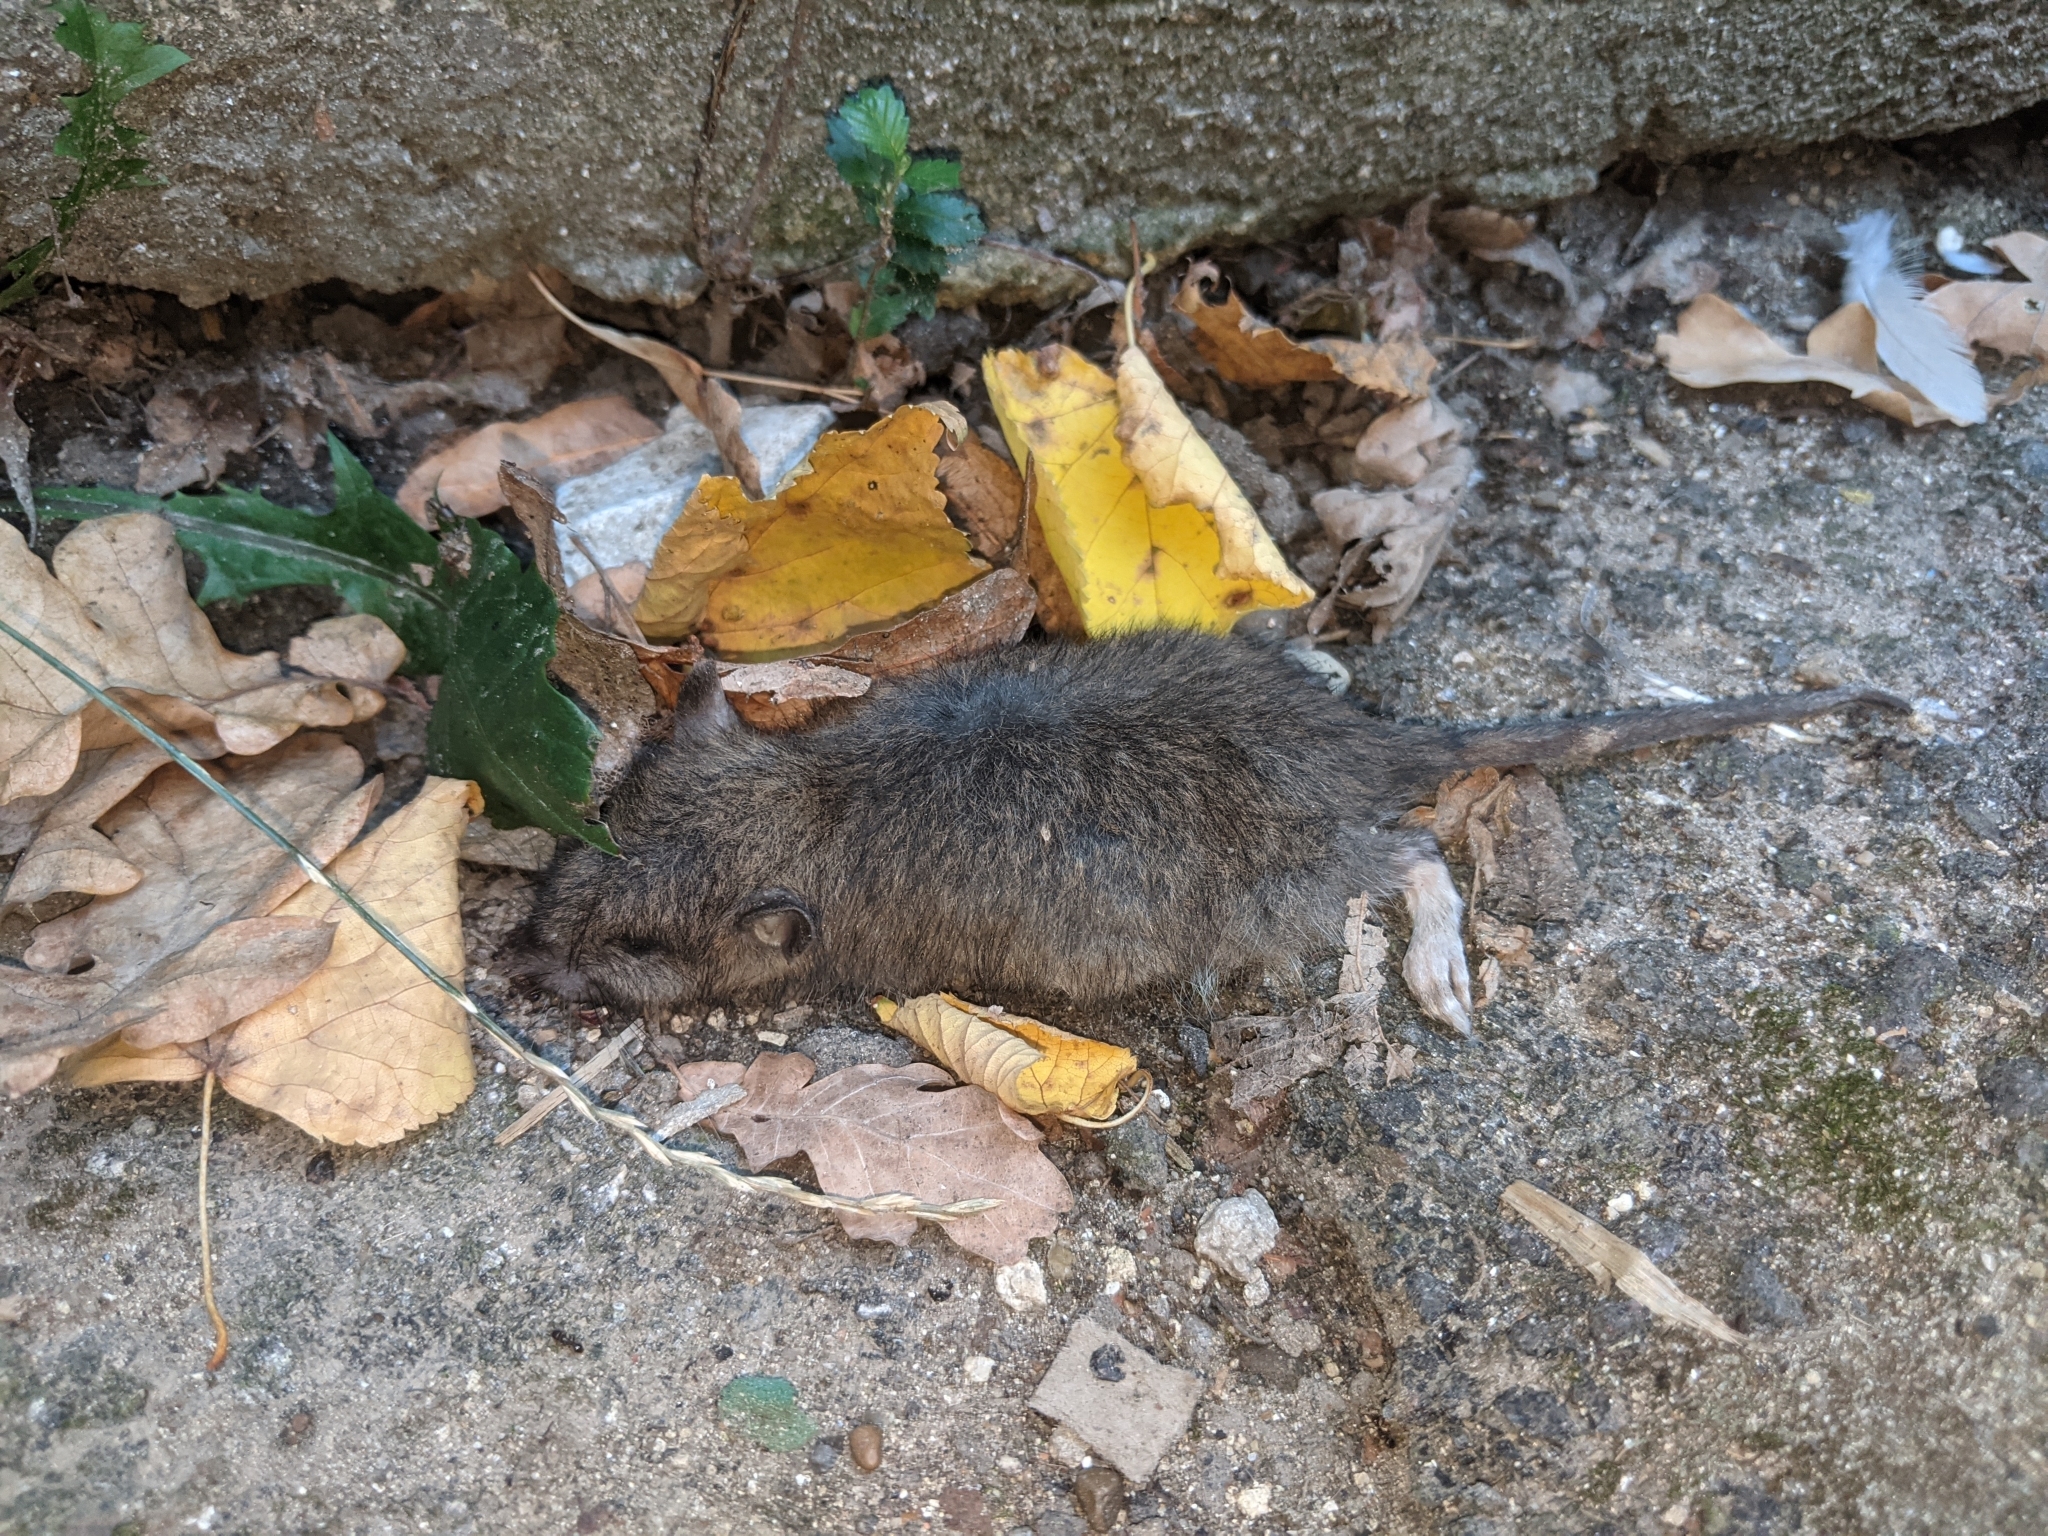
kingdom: Animalia
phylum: Chordata
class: Mammalia
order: Rodentia
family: Muridae
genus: Rattus
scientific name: Rattus norvegicus
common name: Brown rat
